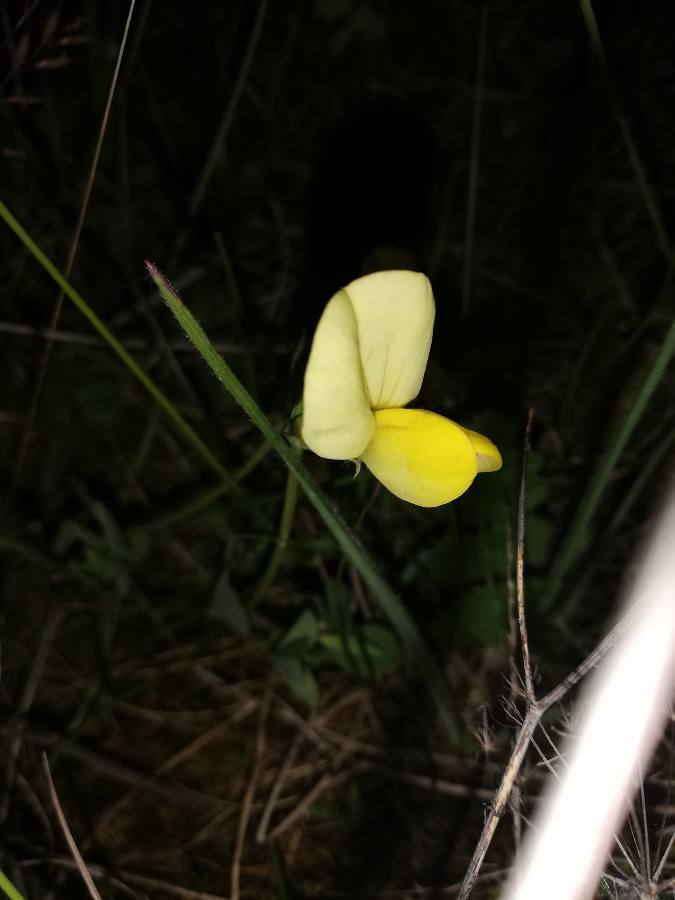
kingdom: Plantae
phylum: Tracheophyta
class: Magnoliopsida
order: Fabales
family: Fabaceae
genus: Lotus
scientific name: Lotus maritimus
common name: Dragon's-teeth
